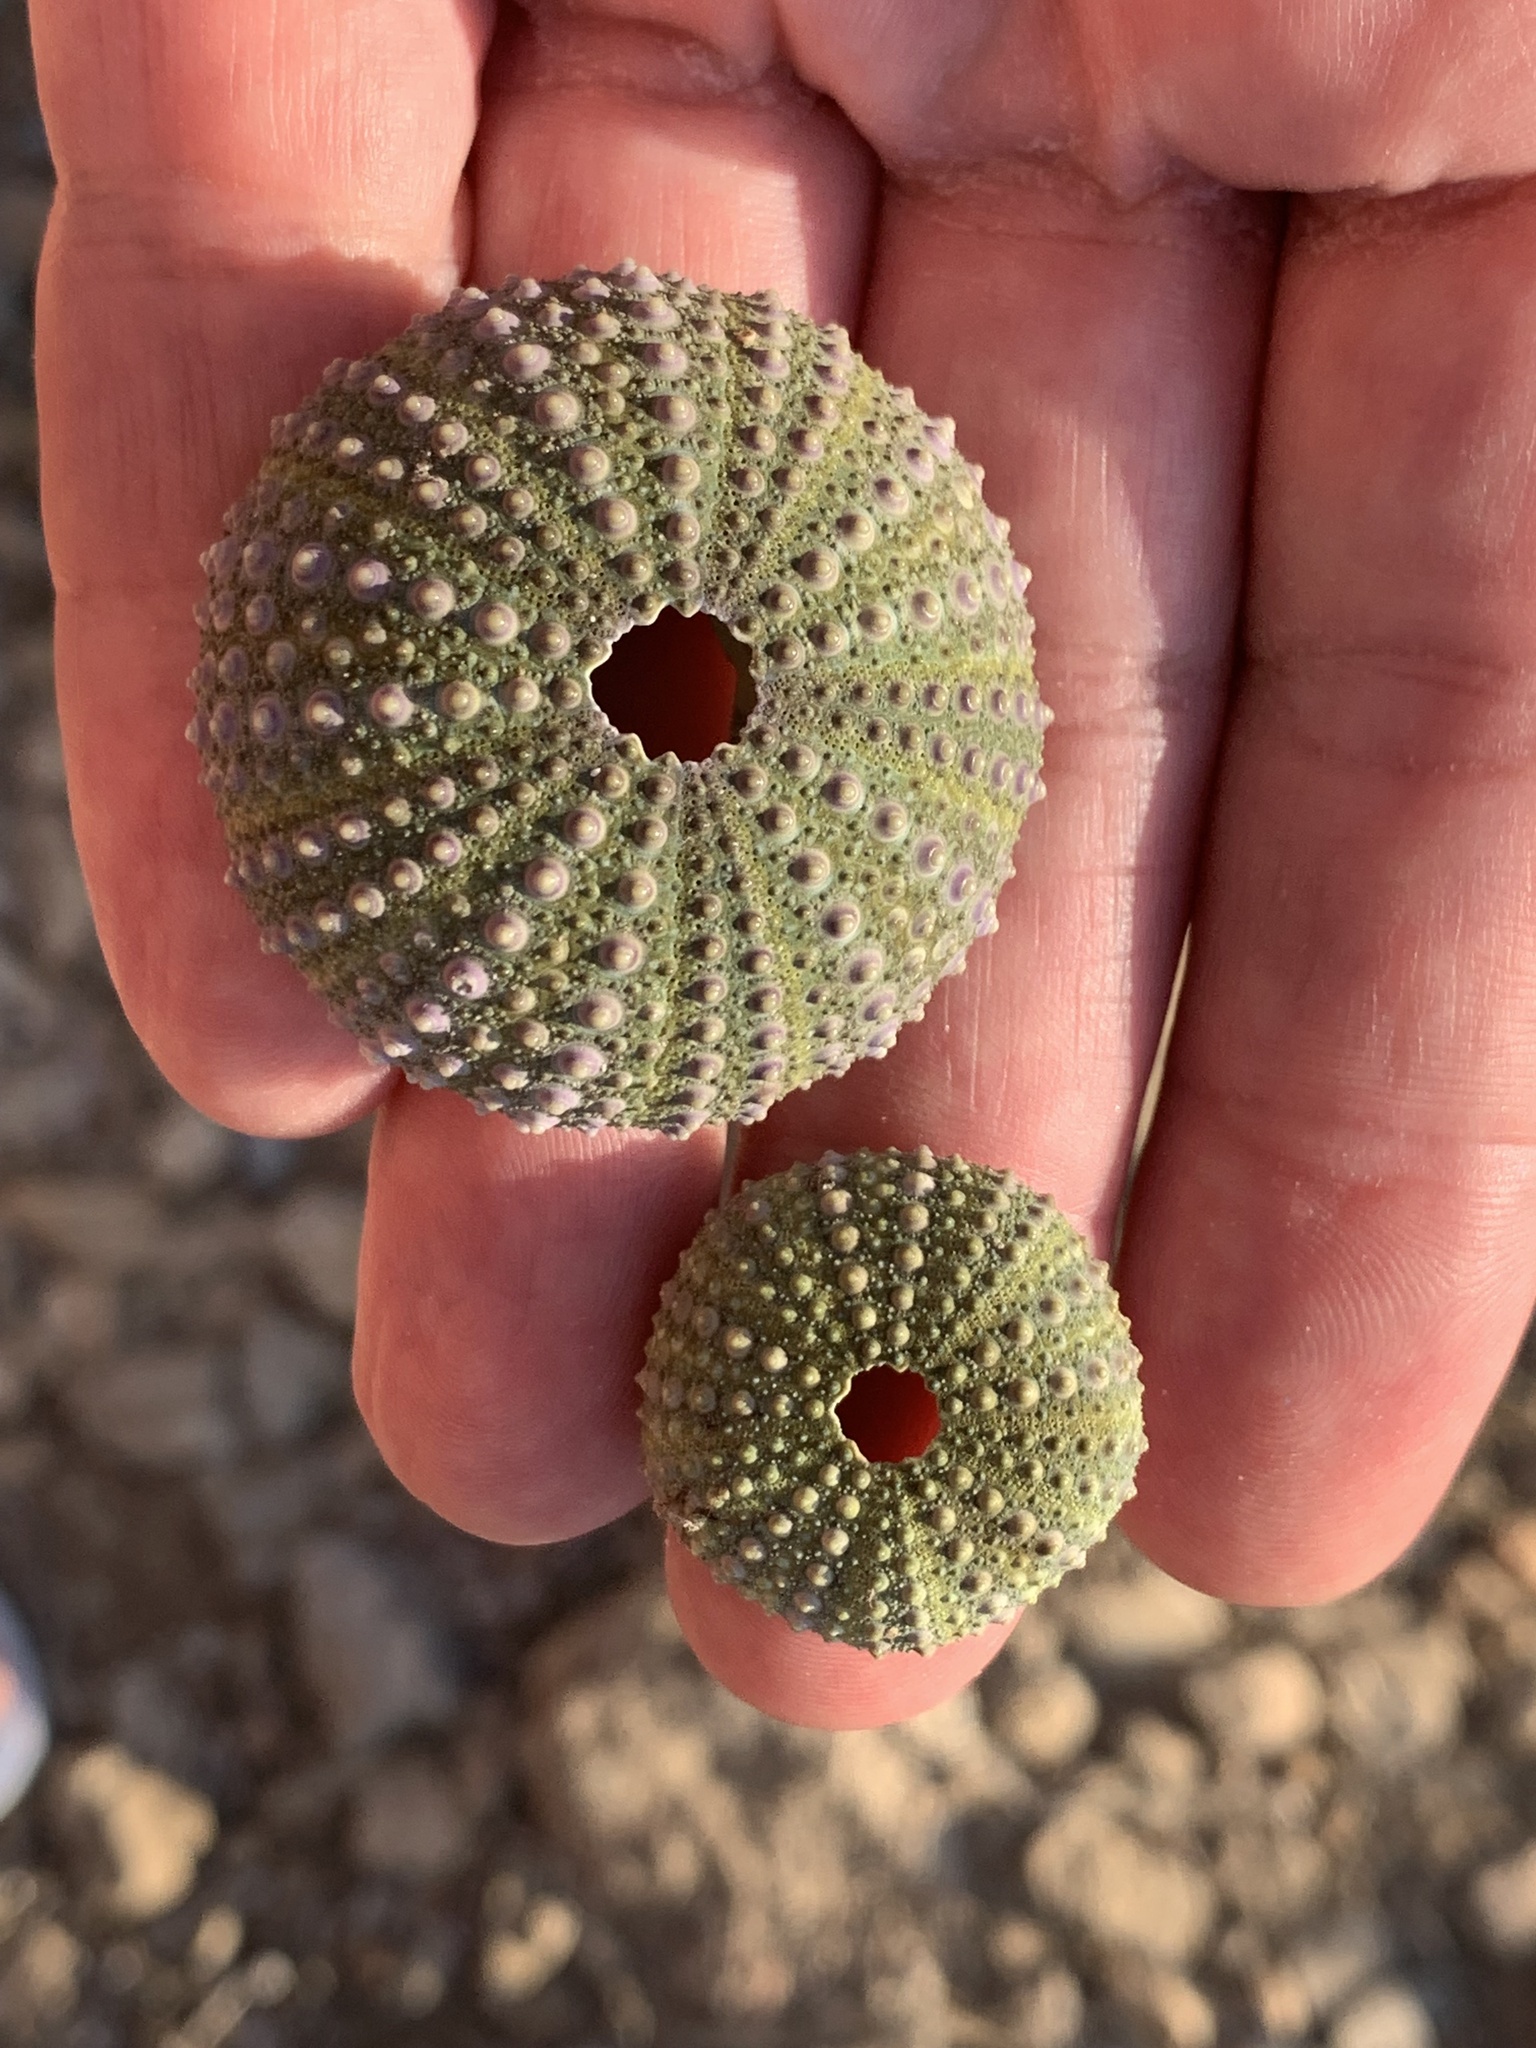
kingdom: Animalia
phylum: Echinodermata
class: Echinoidea
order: Camarodonta
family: Parechinidae
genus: Paracentrotus
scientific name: Paracentrotus lividus
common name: Purple sea urchin
